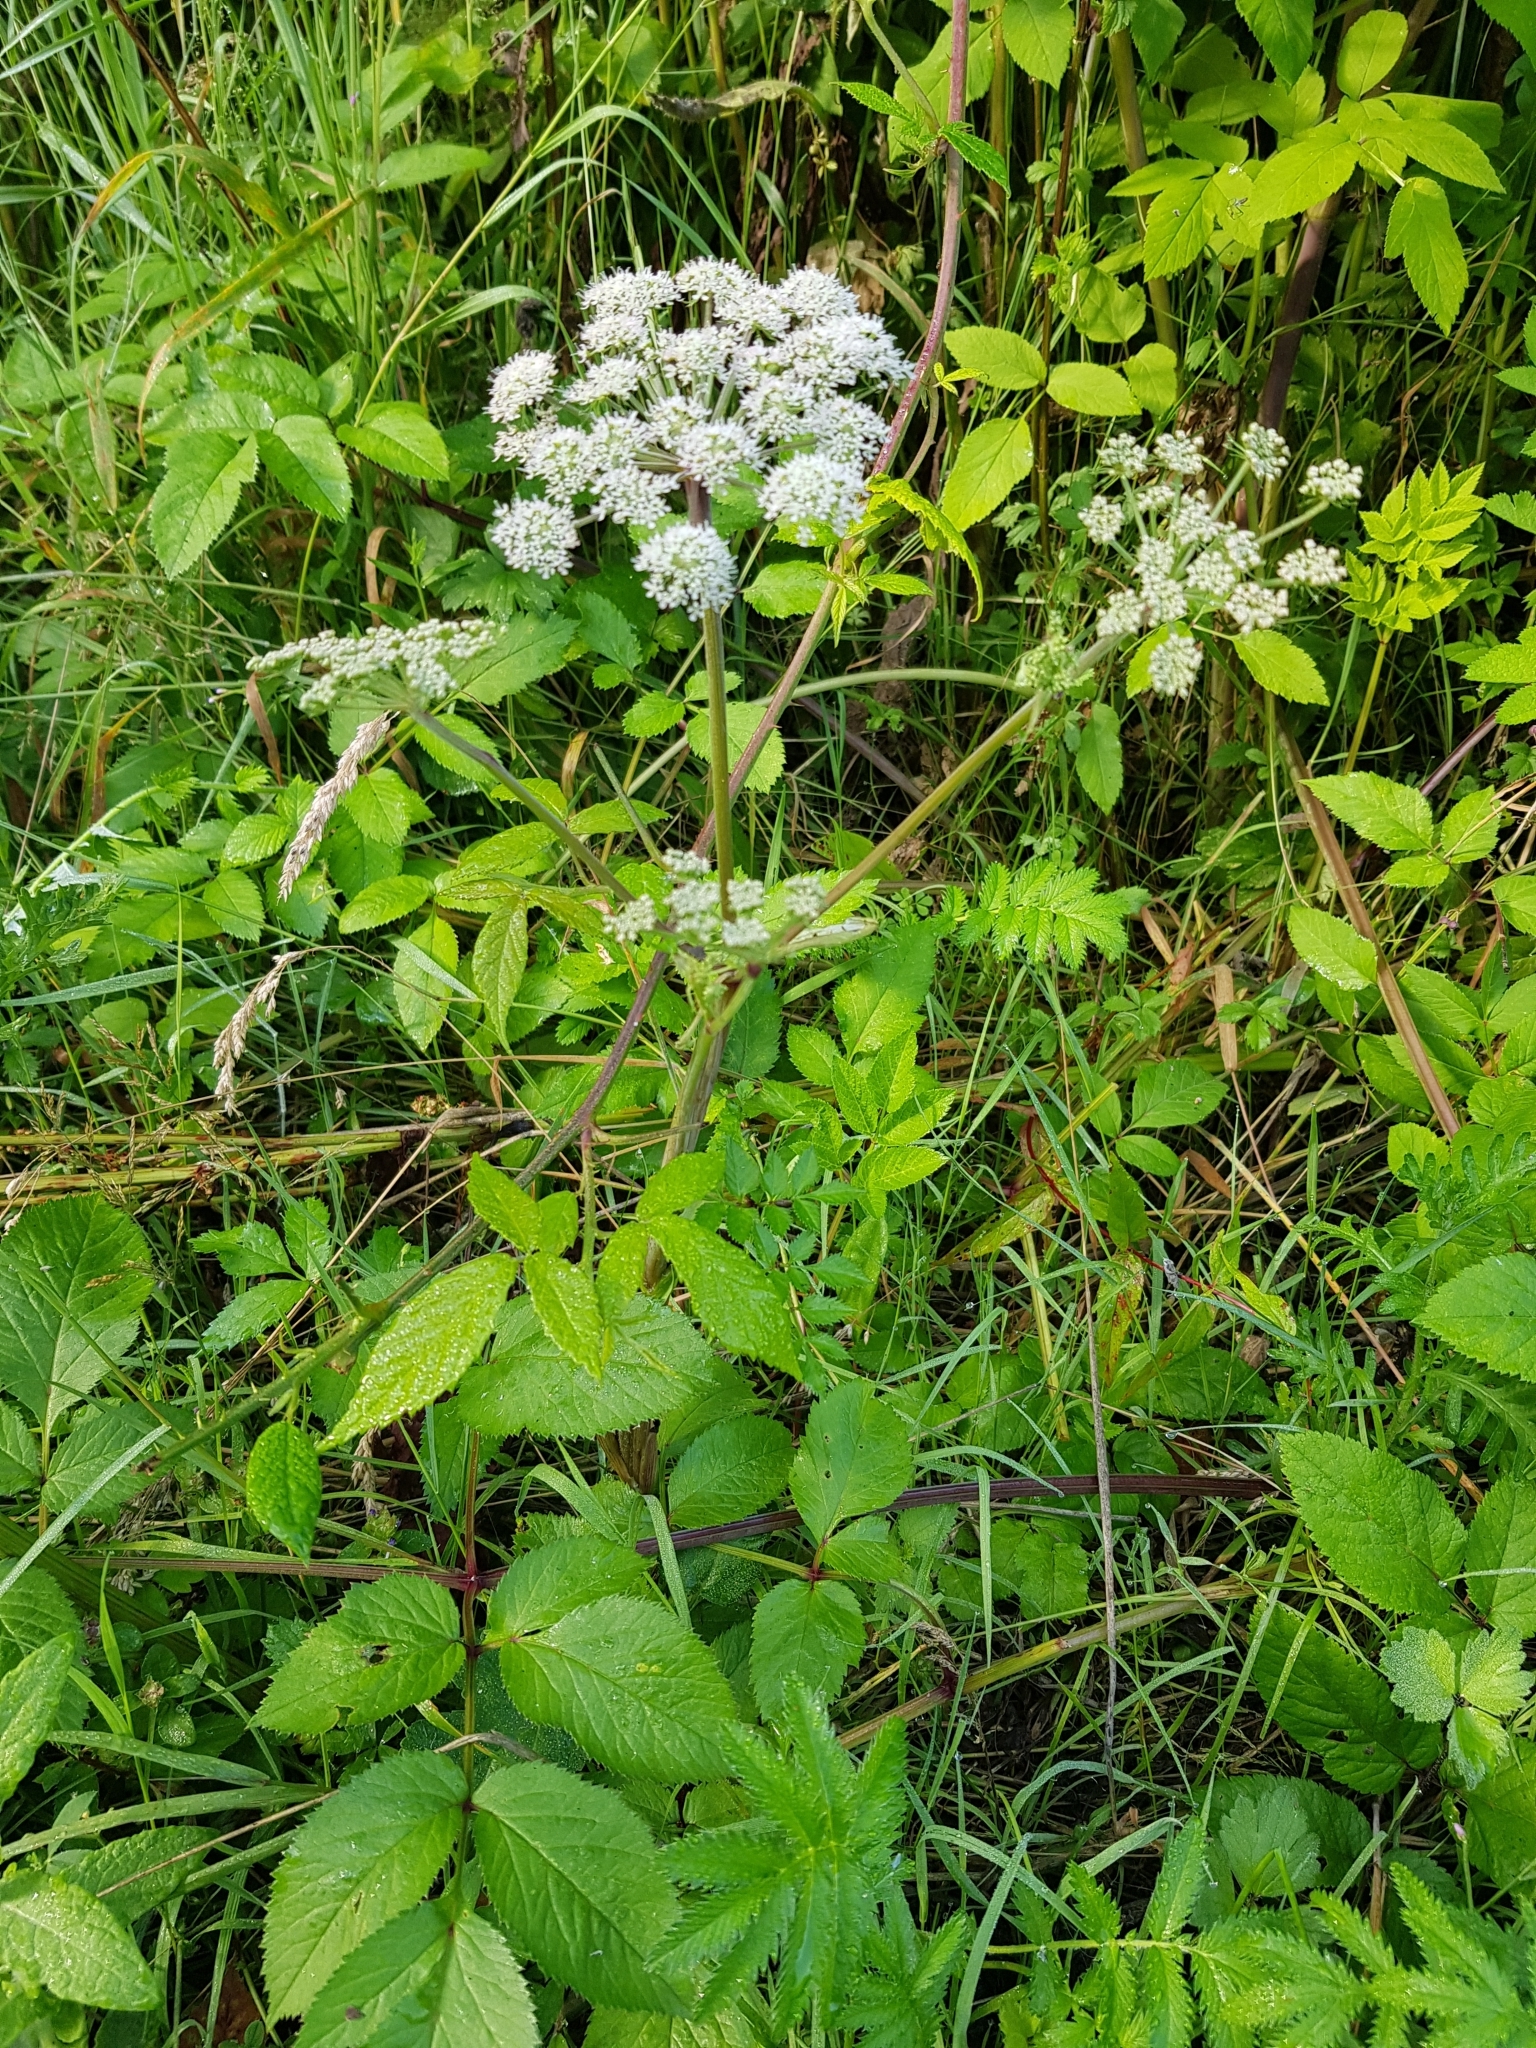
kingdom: Plantae
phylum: Tracheophyta
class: Magnoliopsida
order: Apiales
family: Apiaceae
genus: Angelica
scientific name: Angelica sylvestris
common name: Wild angelica
